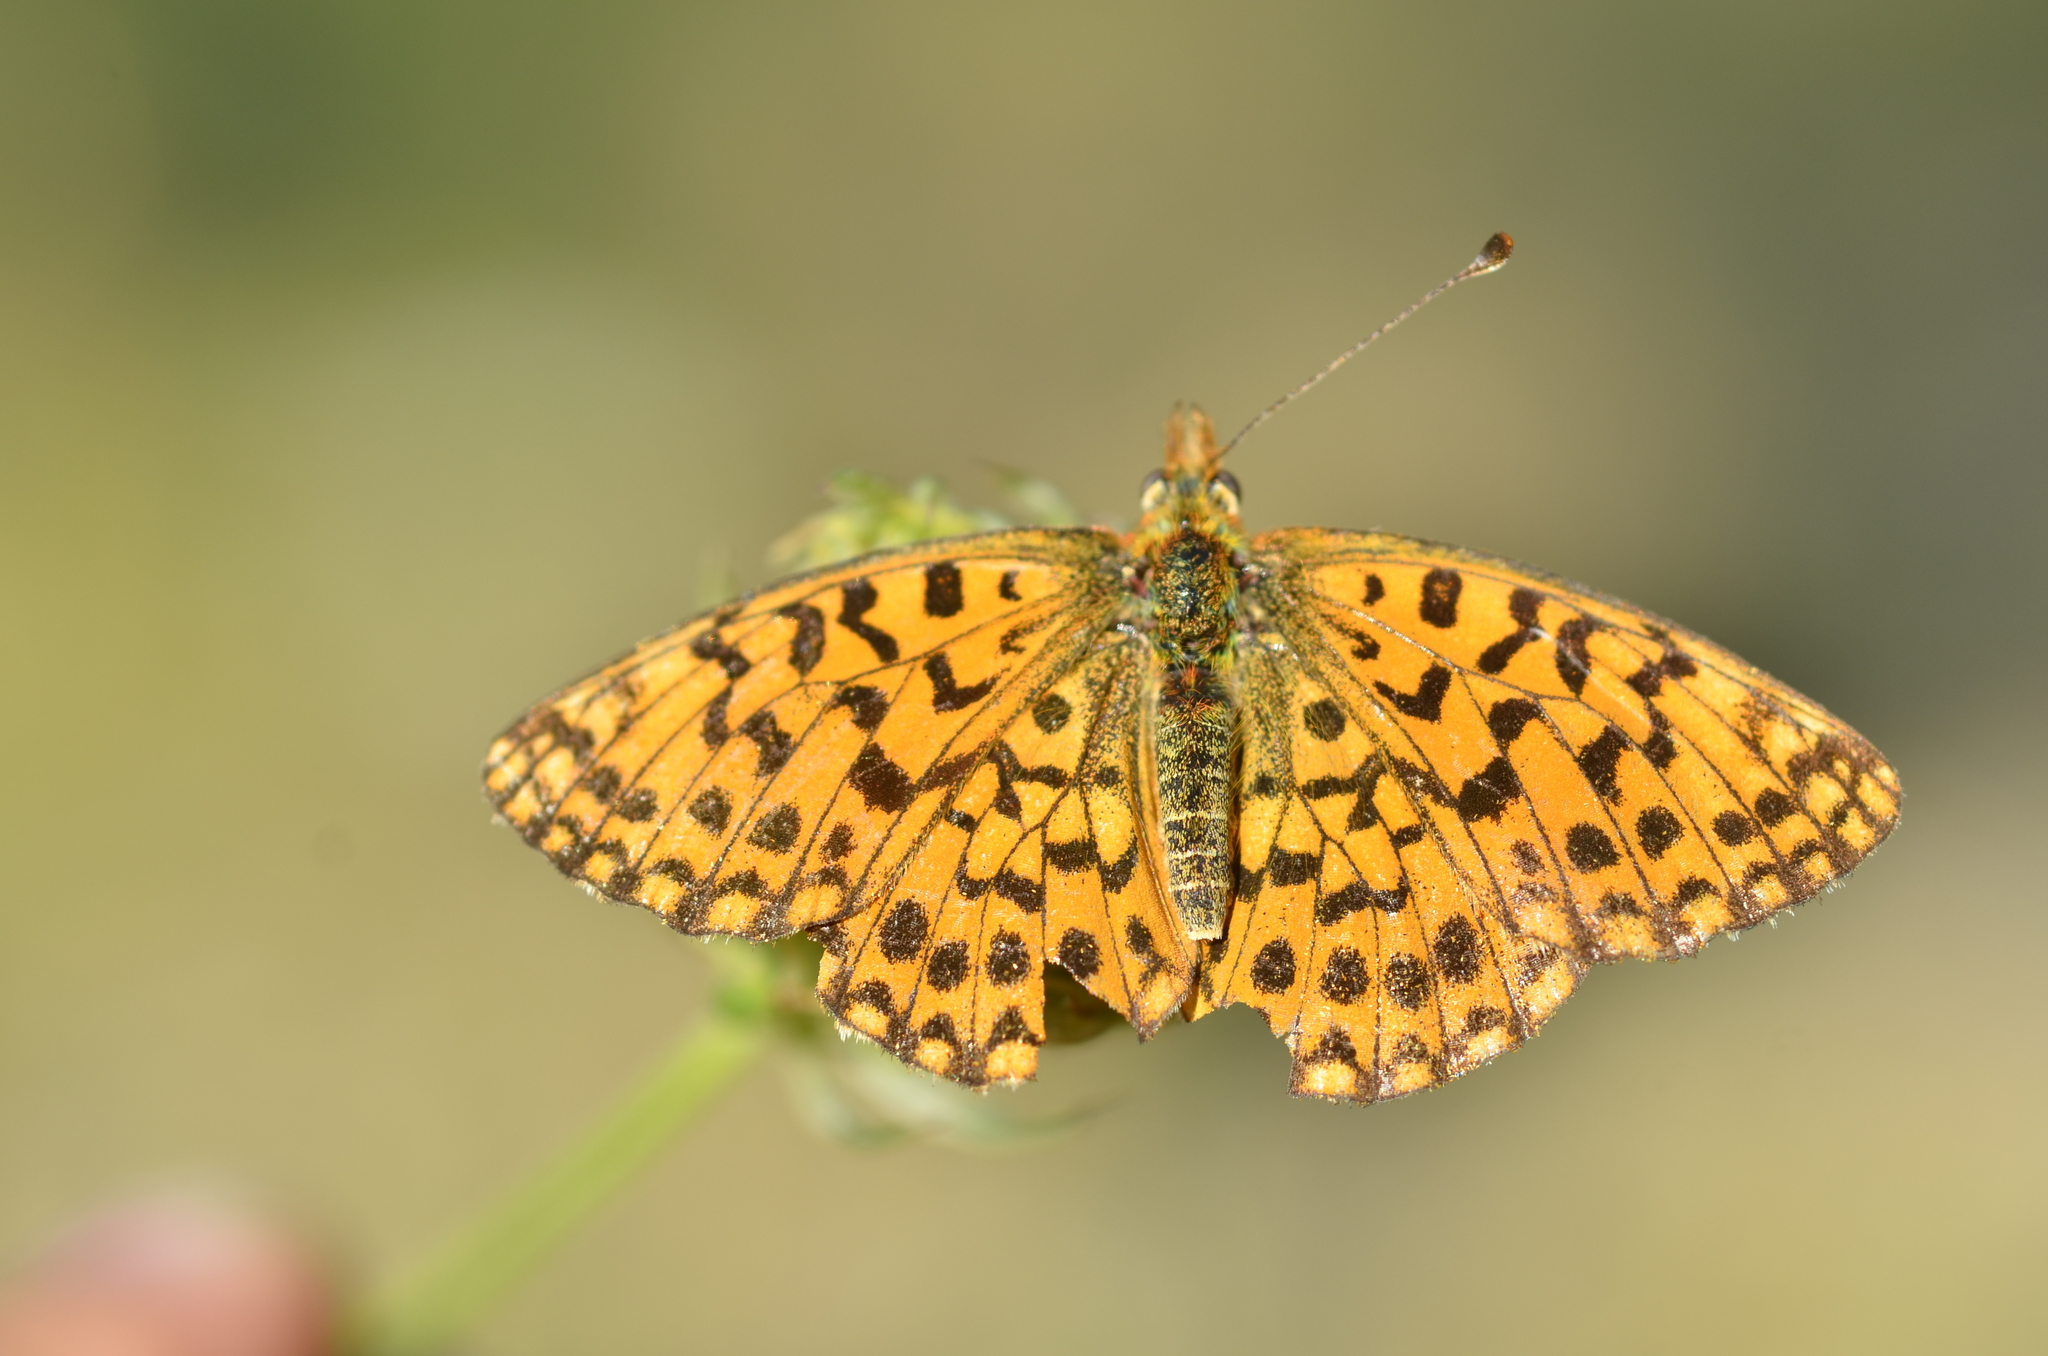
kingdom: Animalia
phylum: Arthropoda
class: Insecta
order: Lepidoptera
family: Nymphalidae
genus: Boloria
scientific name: Boloria dia
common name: Weaver's fritillary
